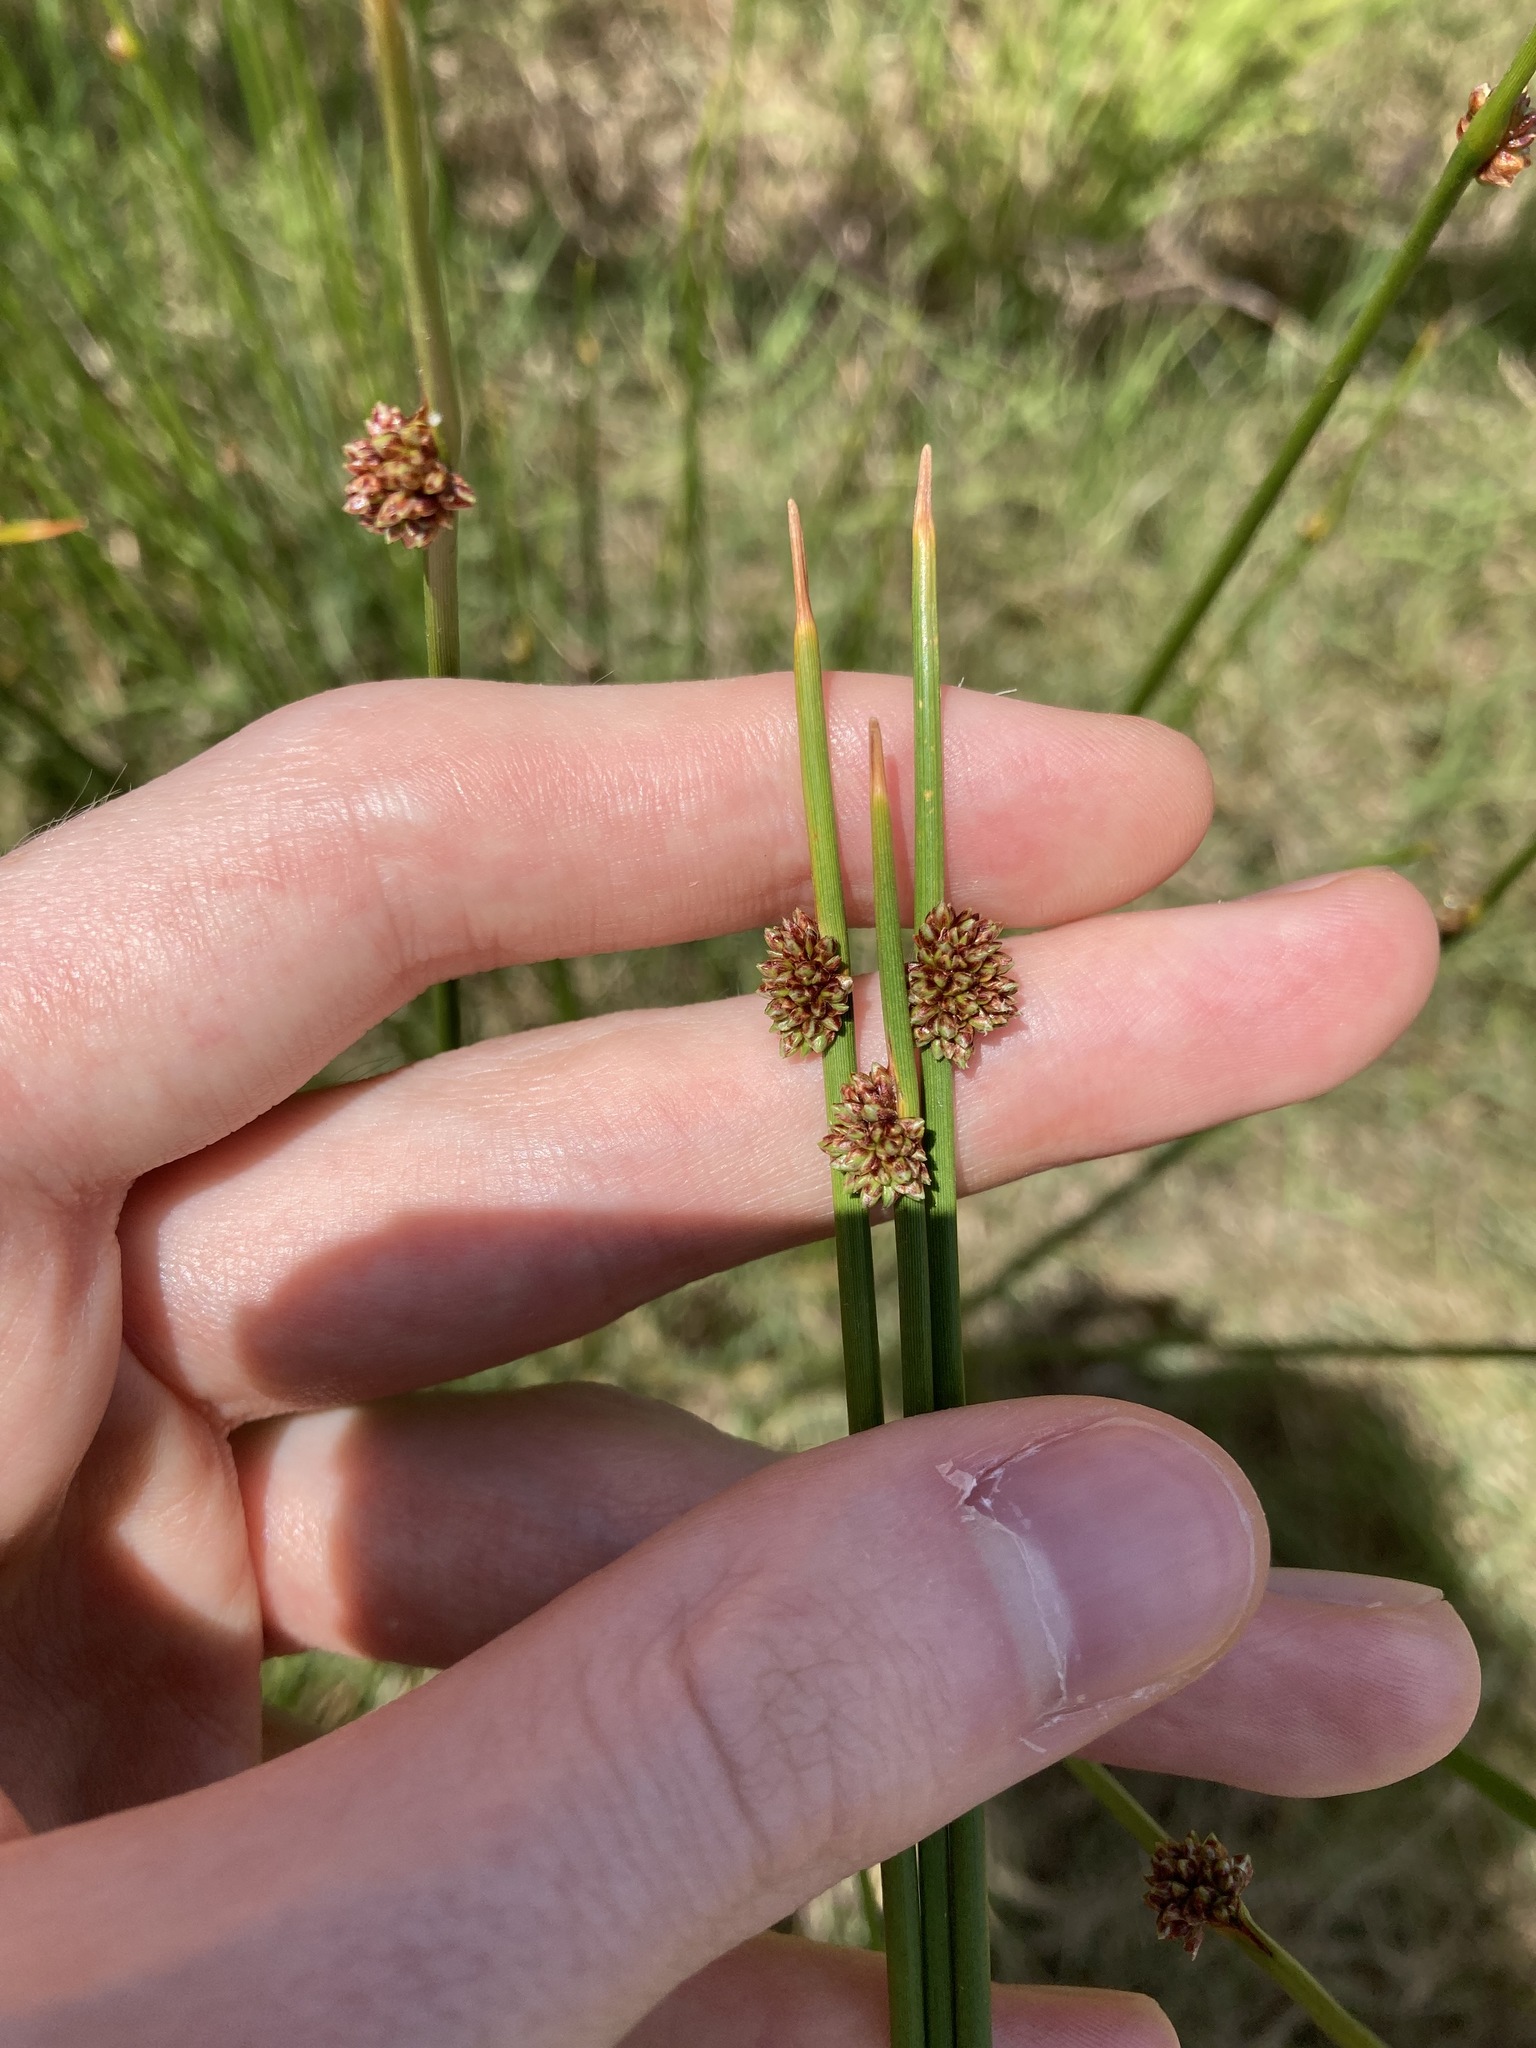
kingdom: Plantae
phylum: Tracheophyta
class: Liliopsida
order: Poales
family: Cyperaceae
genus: Ficinia
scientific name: Ficinia nodosa
